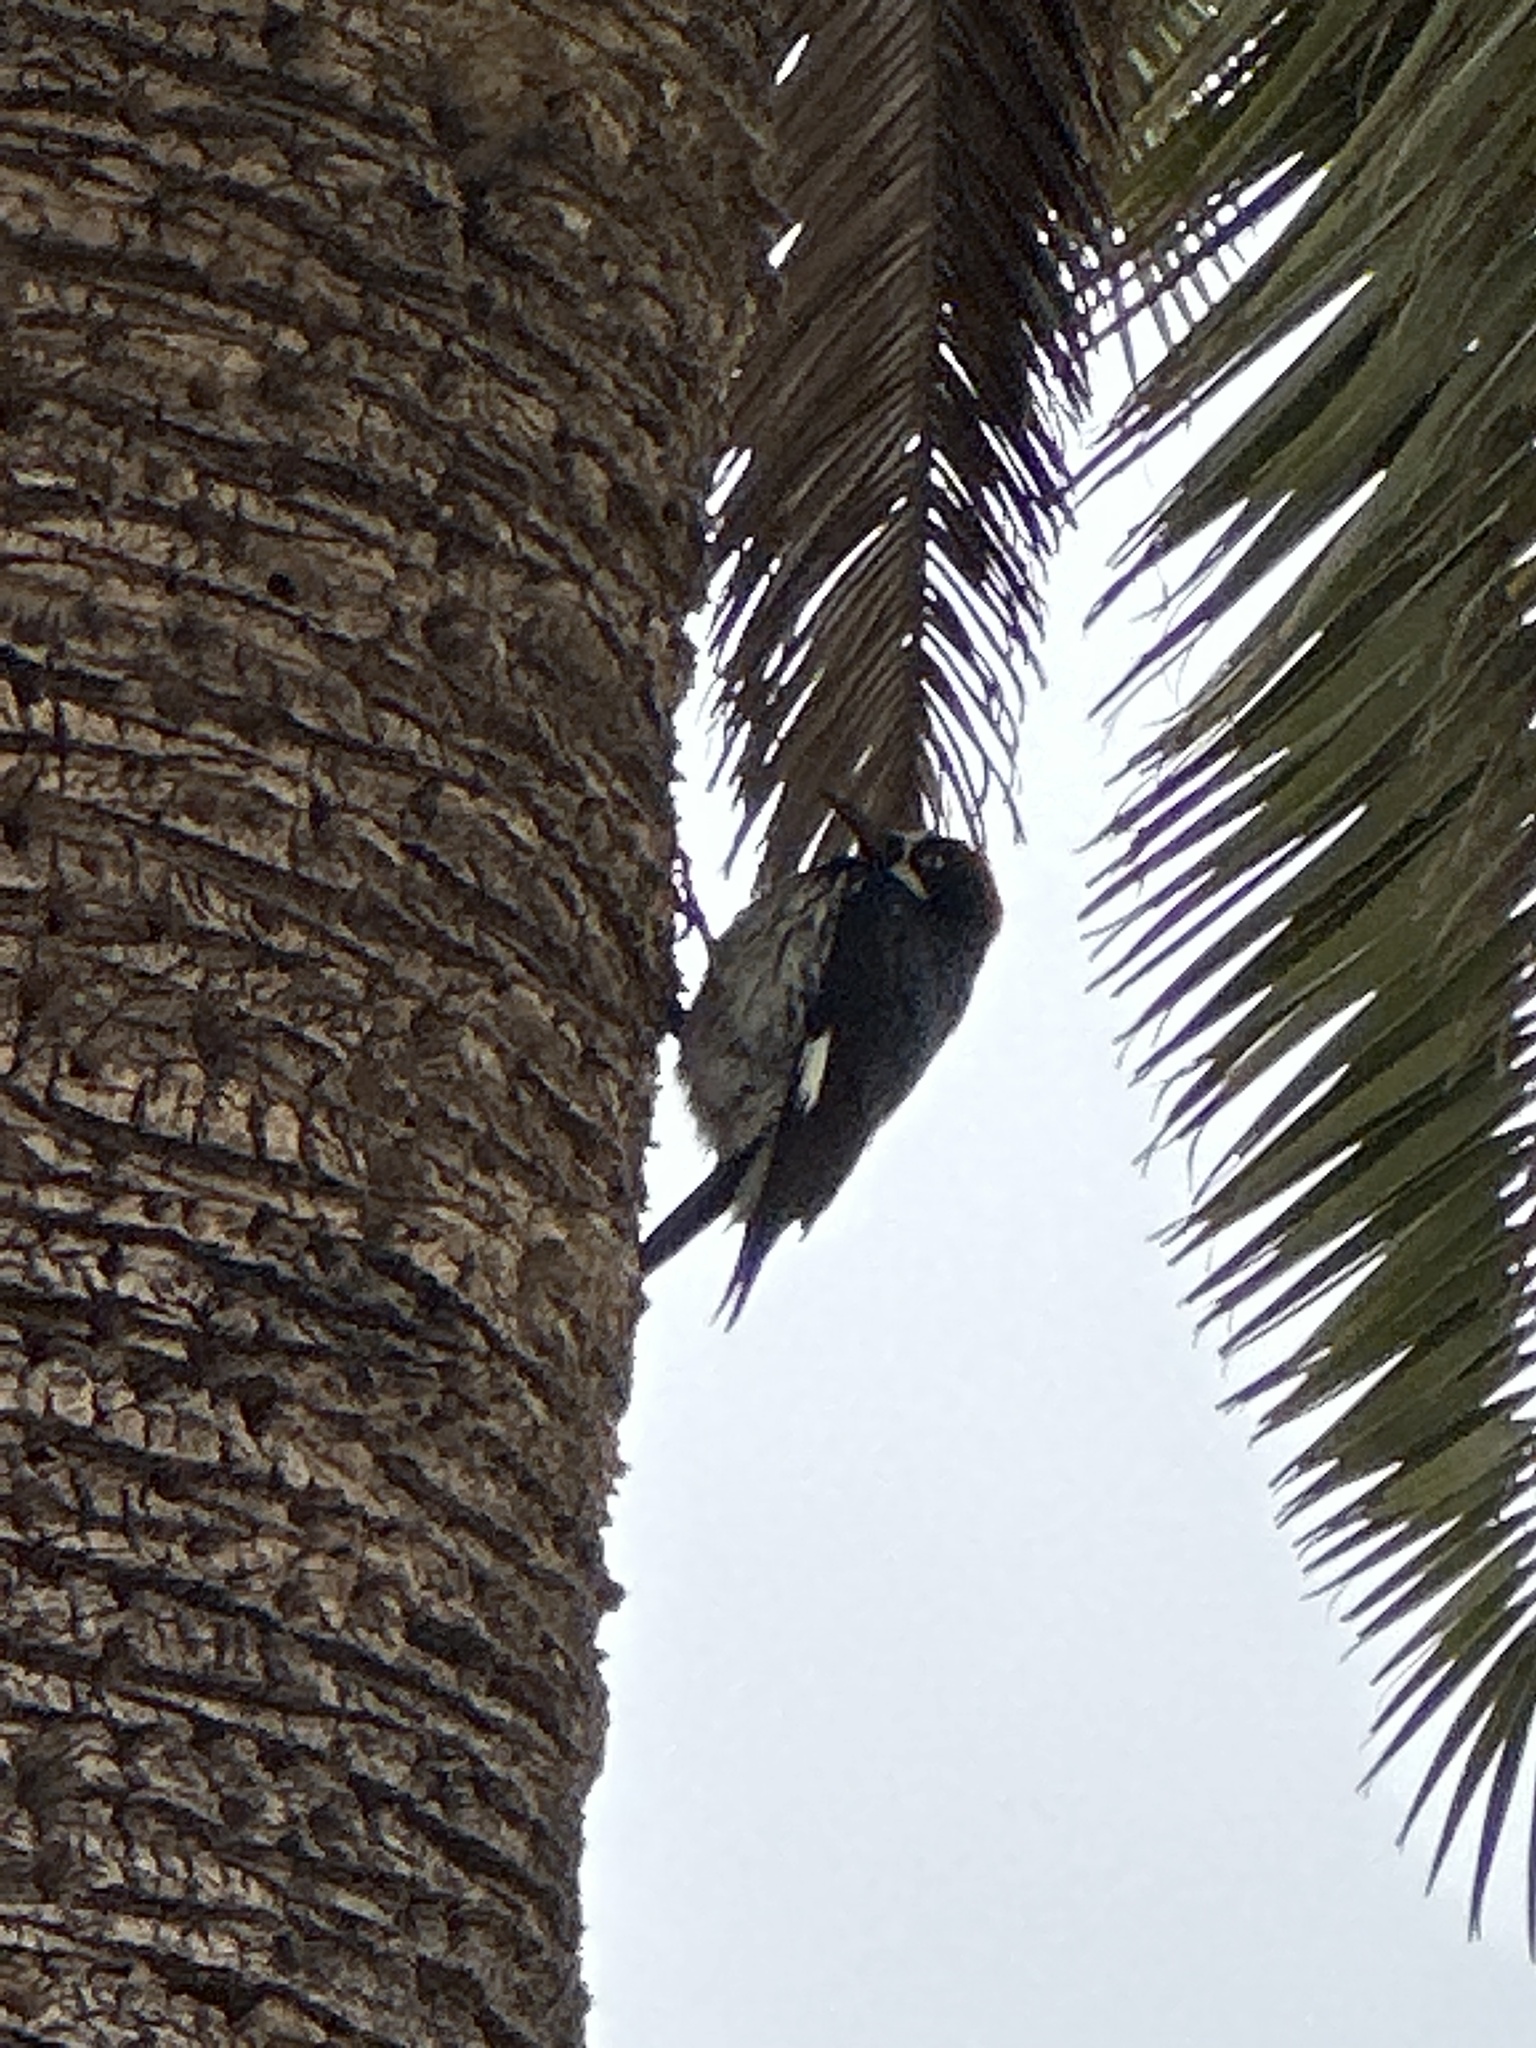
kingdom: Animalia
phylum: Chordata
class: Aves
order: Piciformes
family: Picidae
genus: Melanerpes
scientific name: Melanerpes formicivorus
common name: Acorn woodpecker
